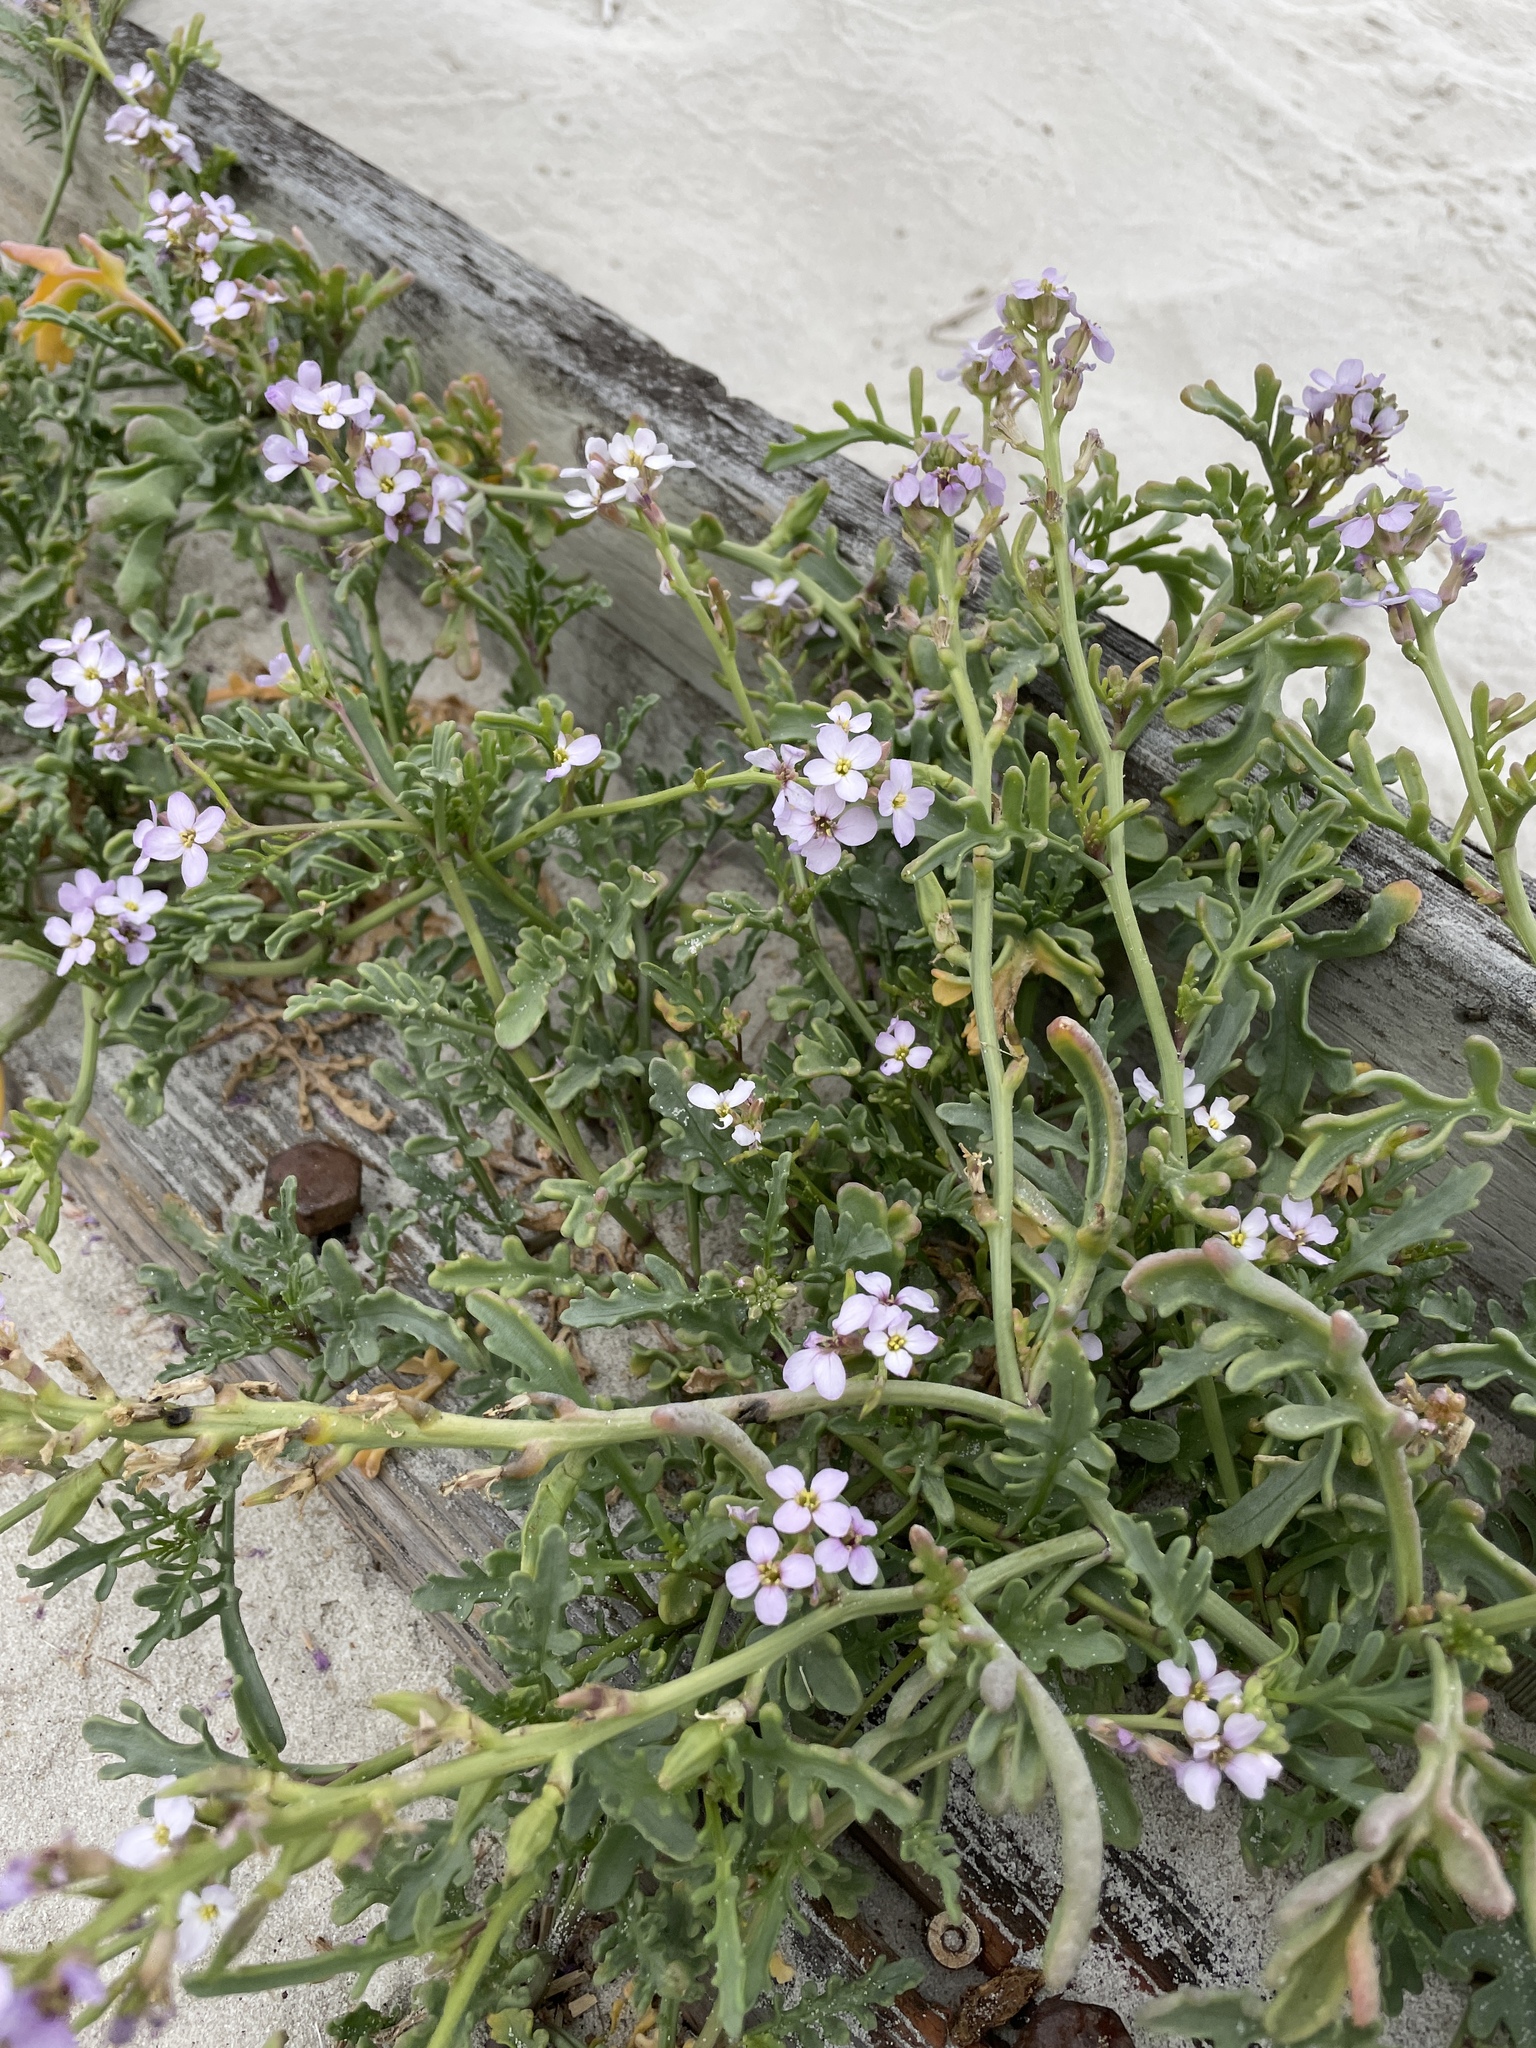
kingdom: Plantae
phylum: Tracheophyta
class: Magnoliopsida
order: Brassicales
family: Brassicaceae
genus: Cakile
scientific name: Cakile maritima
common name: Sea rocket
